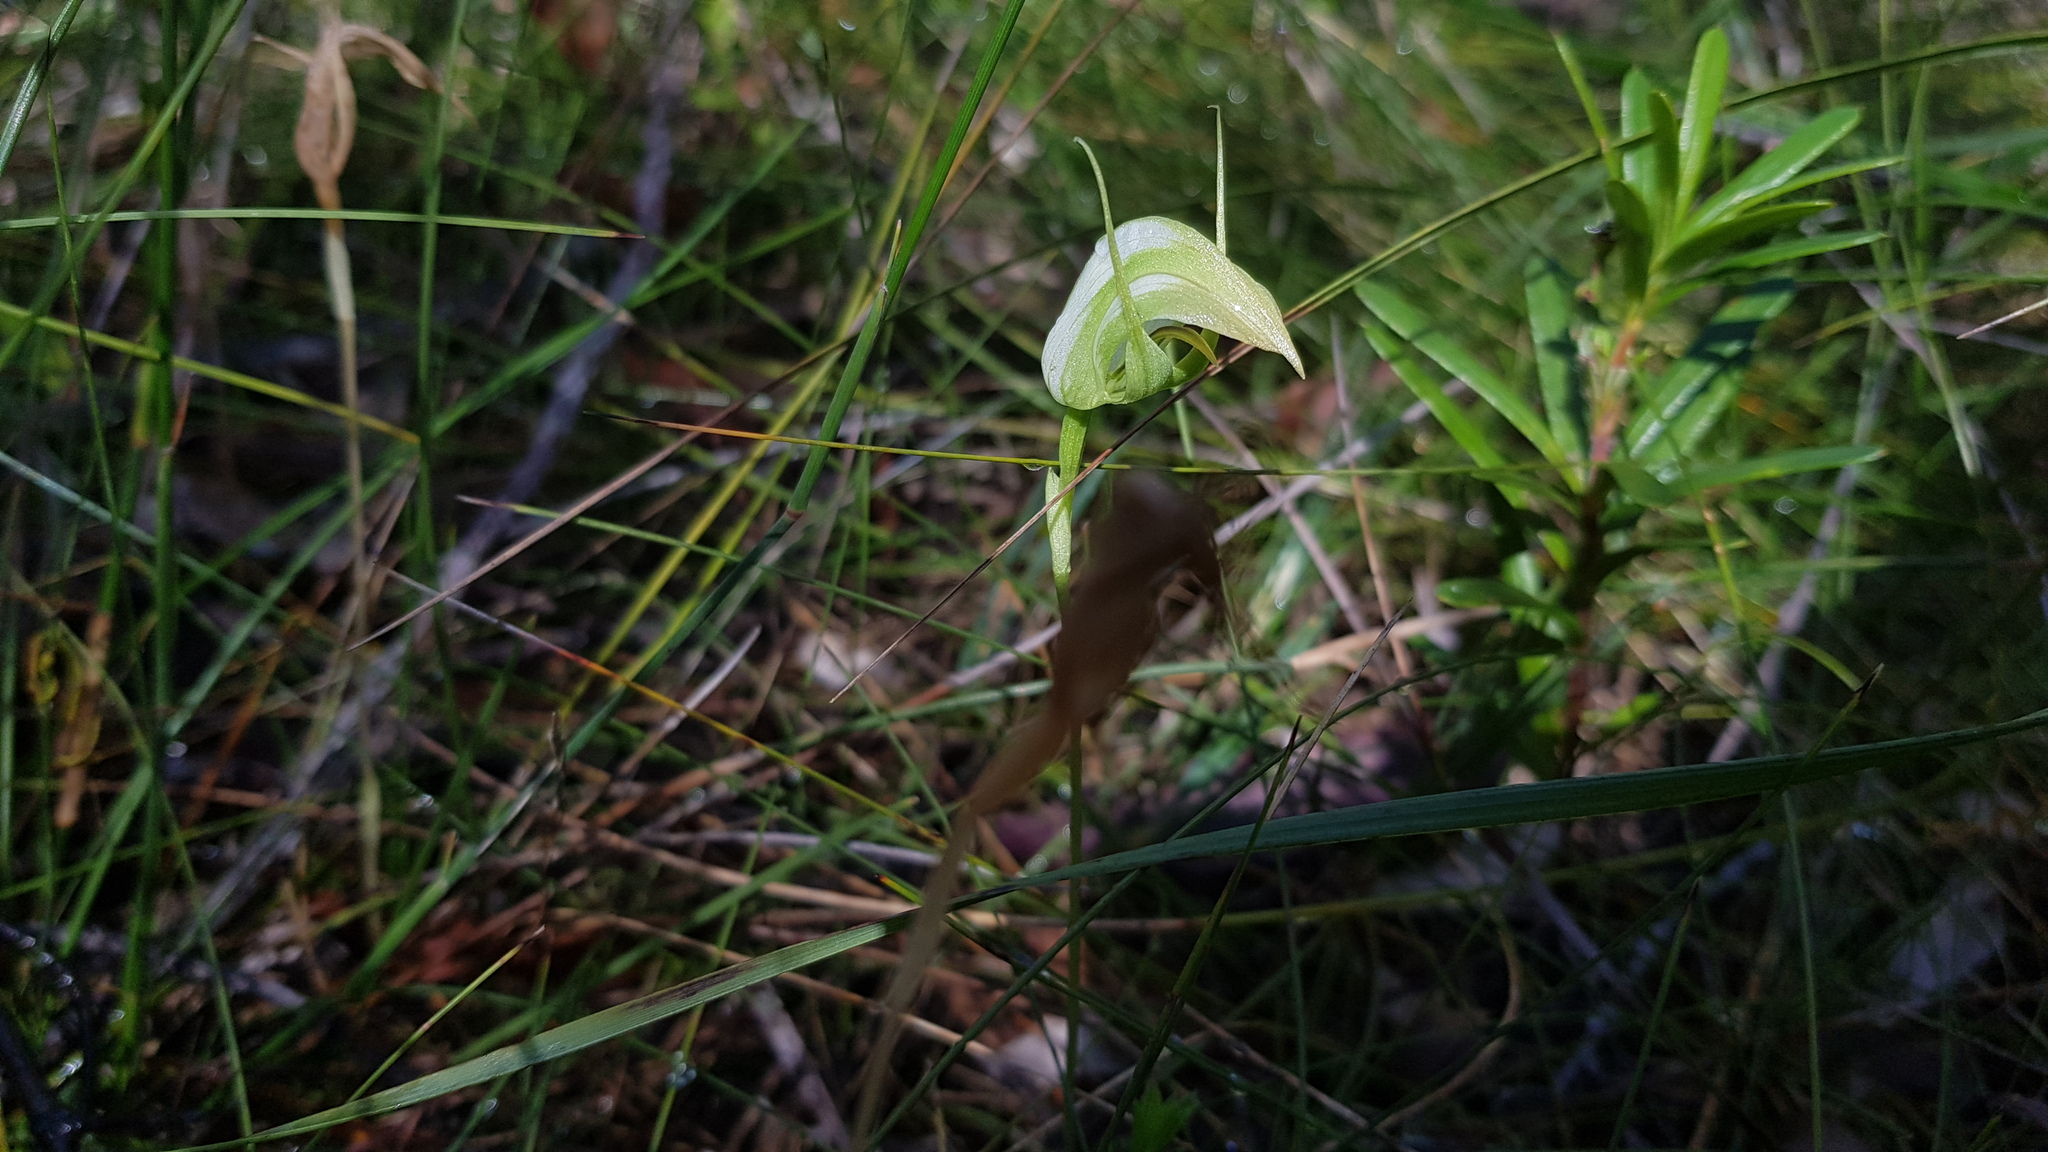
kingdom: Plantae
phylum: Tracheophyta
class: Liliopsida
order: Asparagales
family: Orchidaceae
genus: Pterostylis
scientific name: Pterostylis acuminata
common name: Pointed greenhood
